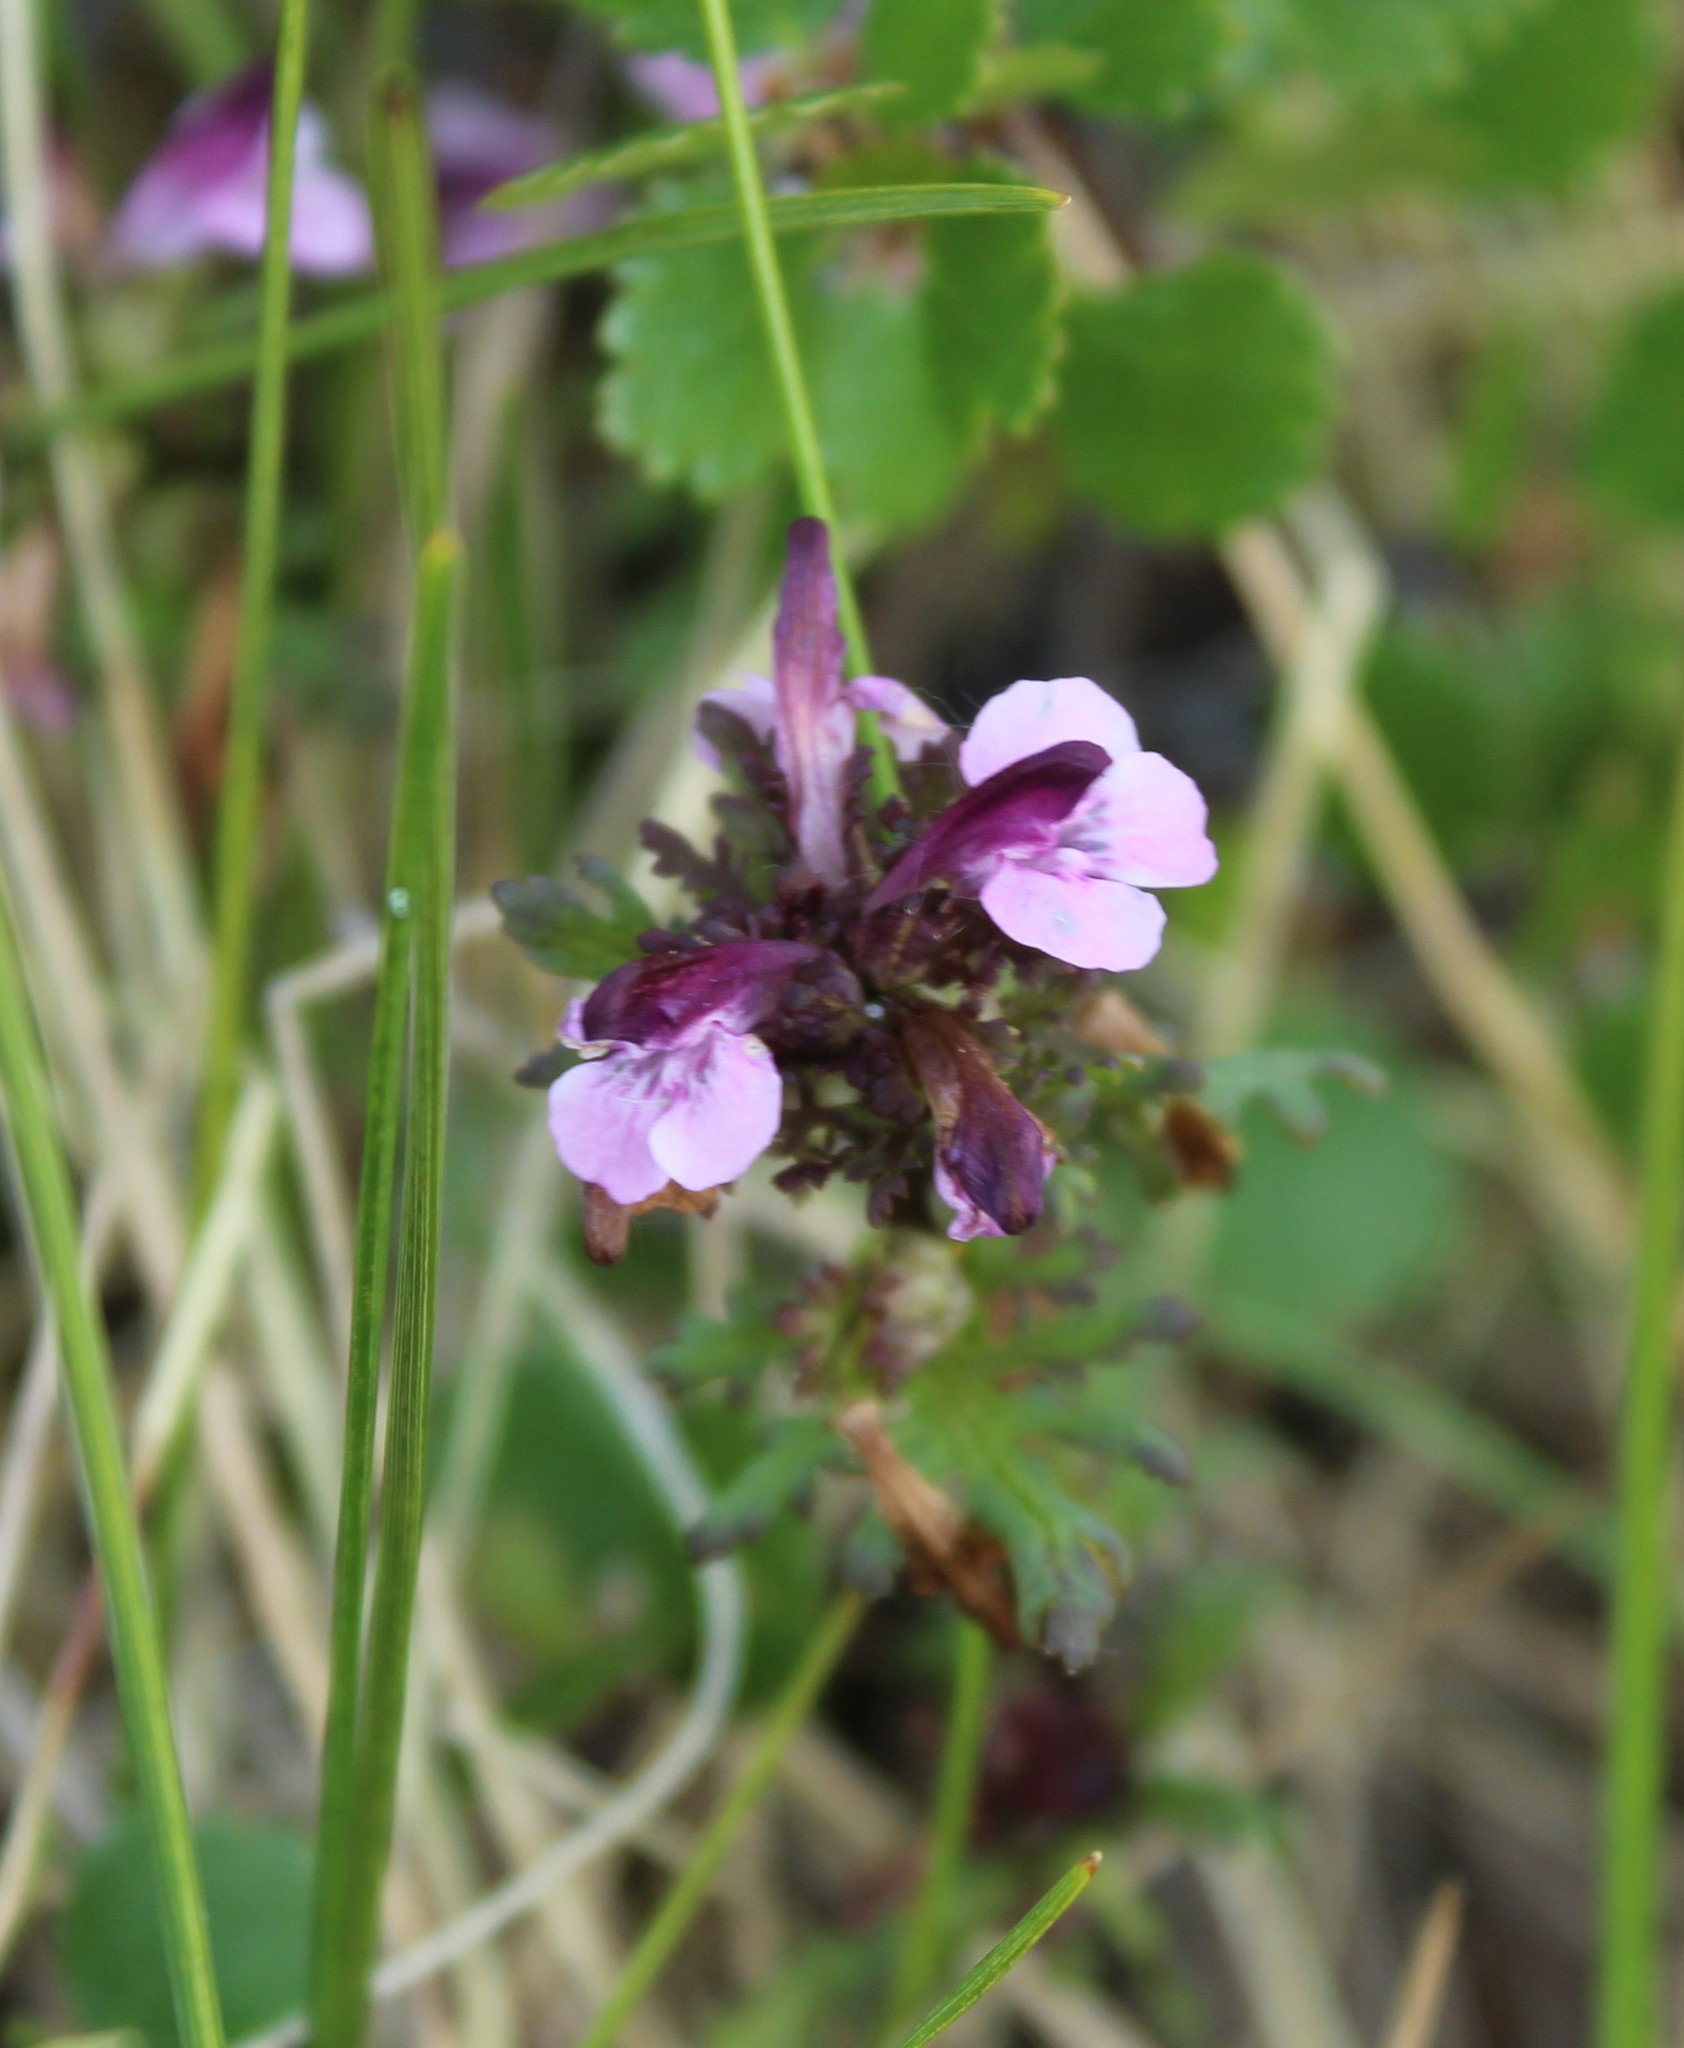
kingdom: Plantae
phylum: Tracheophyta
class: Magnoliopsida
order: Lamiales
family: Orobanchaceae
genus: Pedicularis
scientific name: Pedicularis pennellii
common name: Pennell's lousewort
